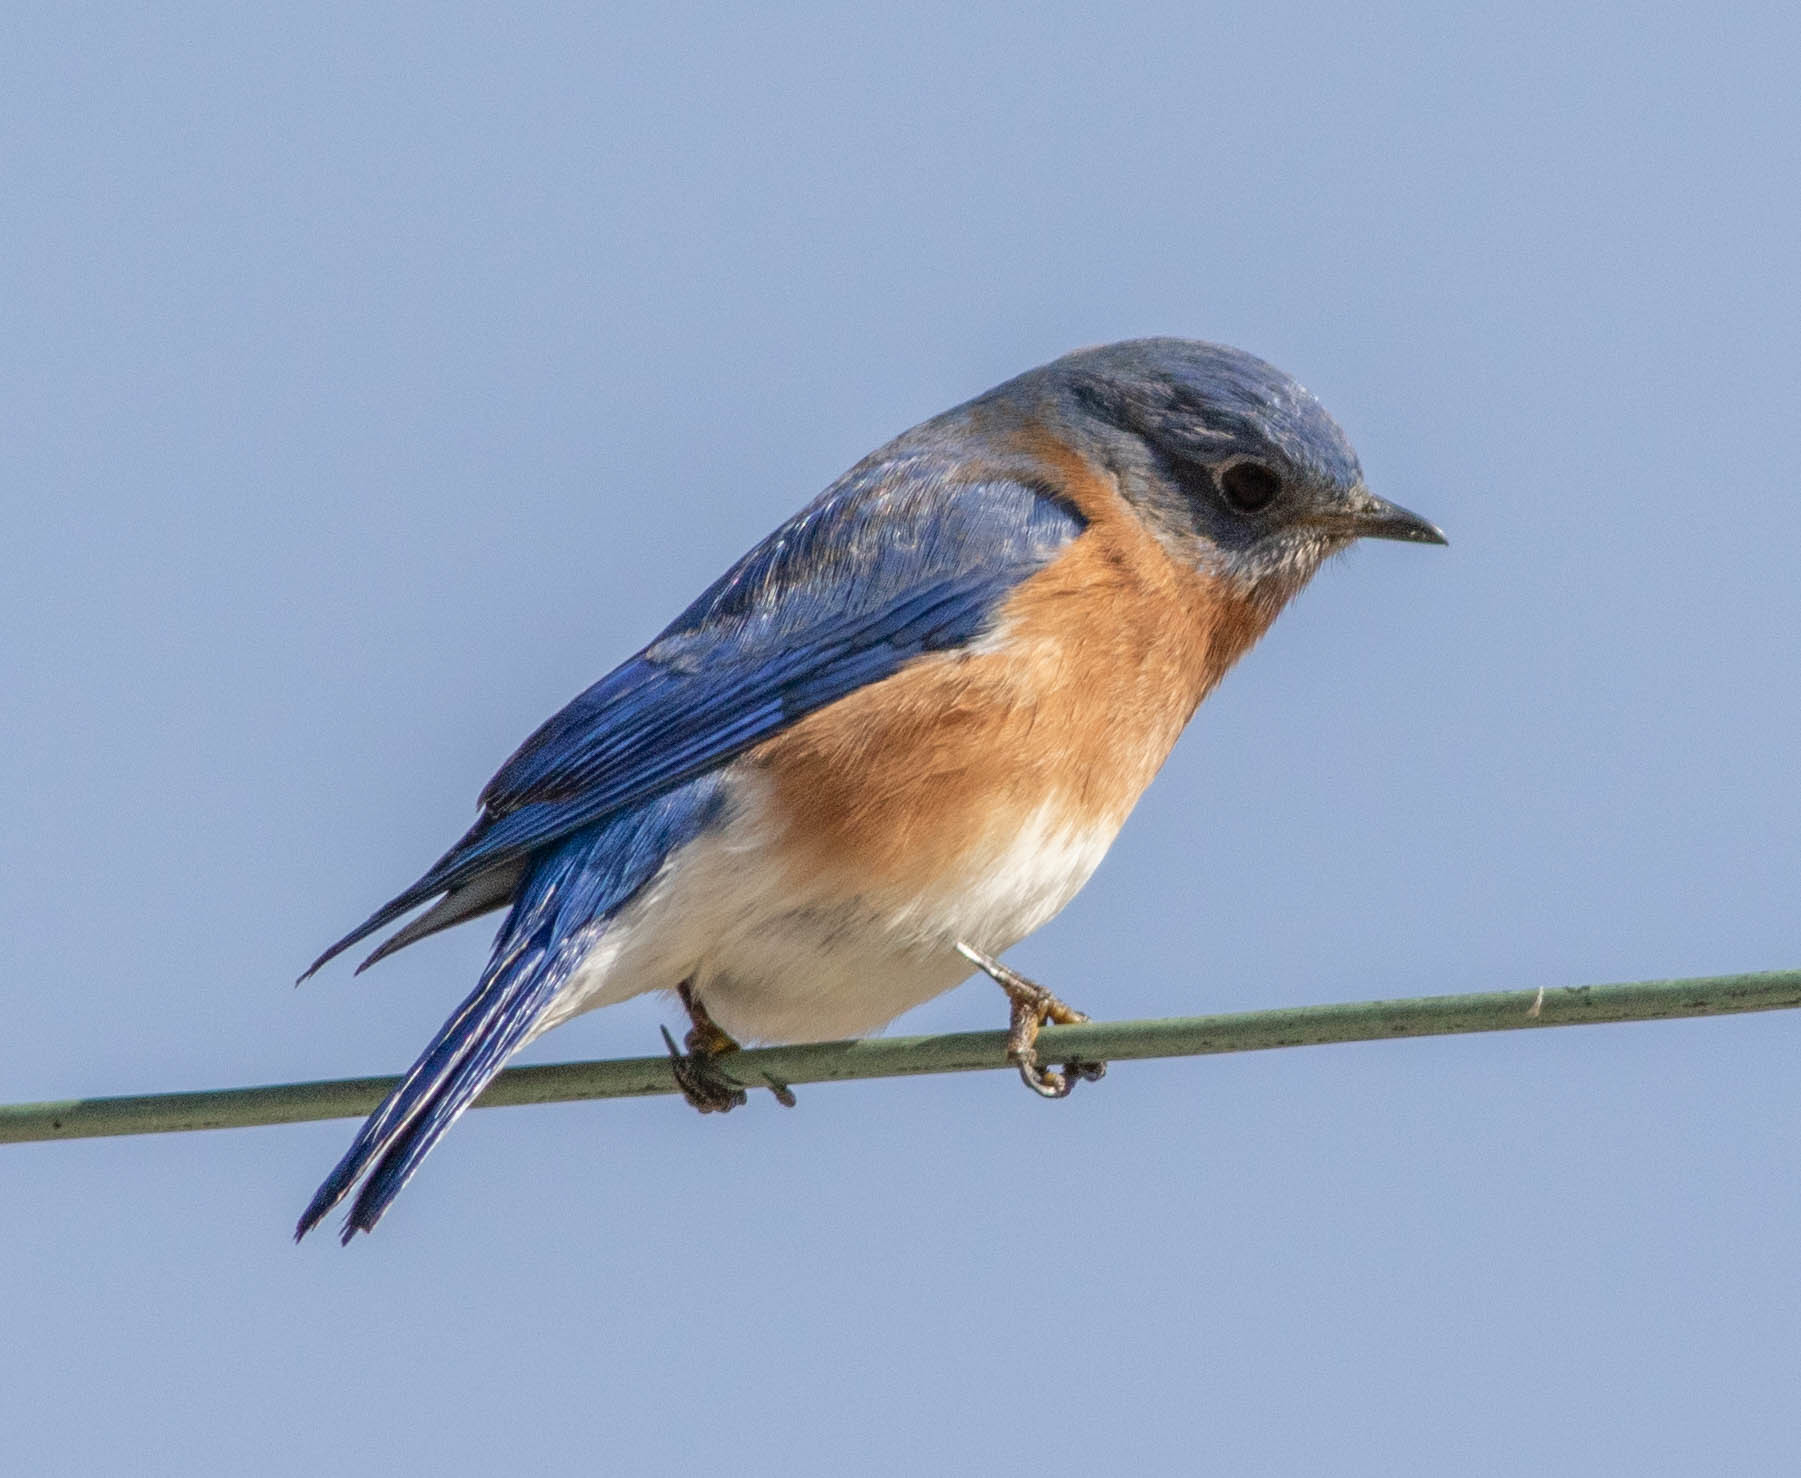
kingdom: Animalia
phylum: Chordata
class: Aves
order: Passeriformes
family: Turdidae
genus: Sialia
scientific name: Sialia sialis
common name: Eastern bluebird
